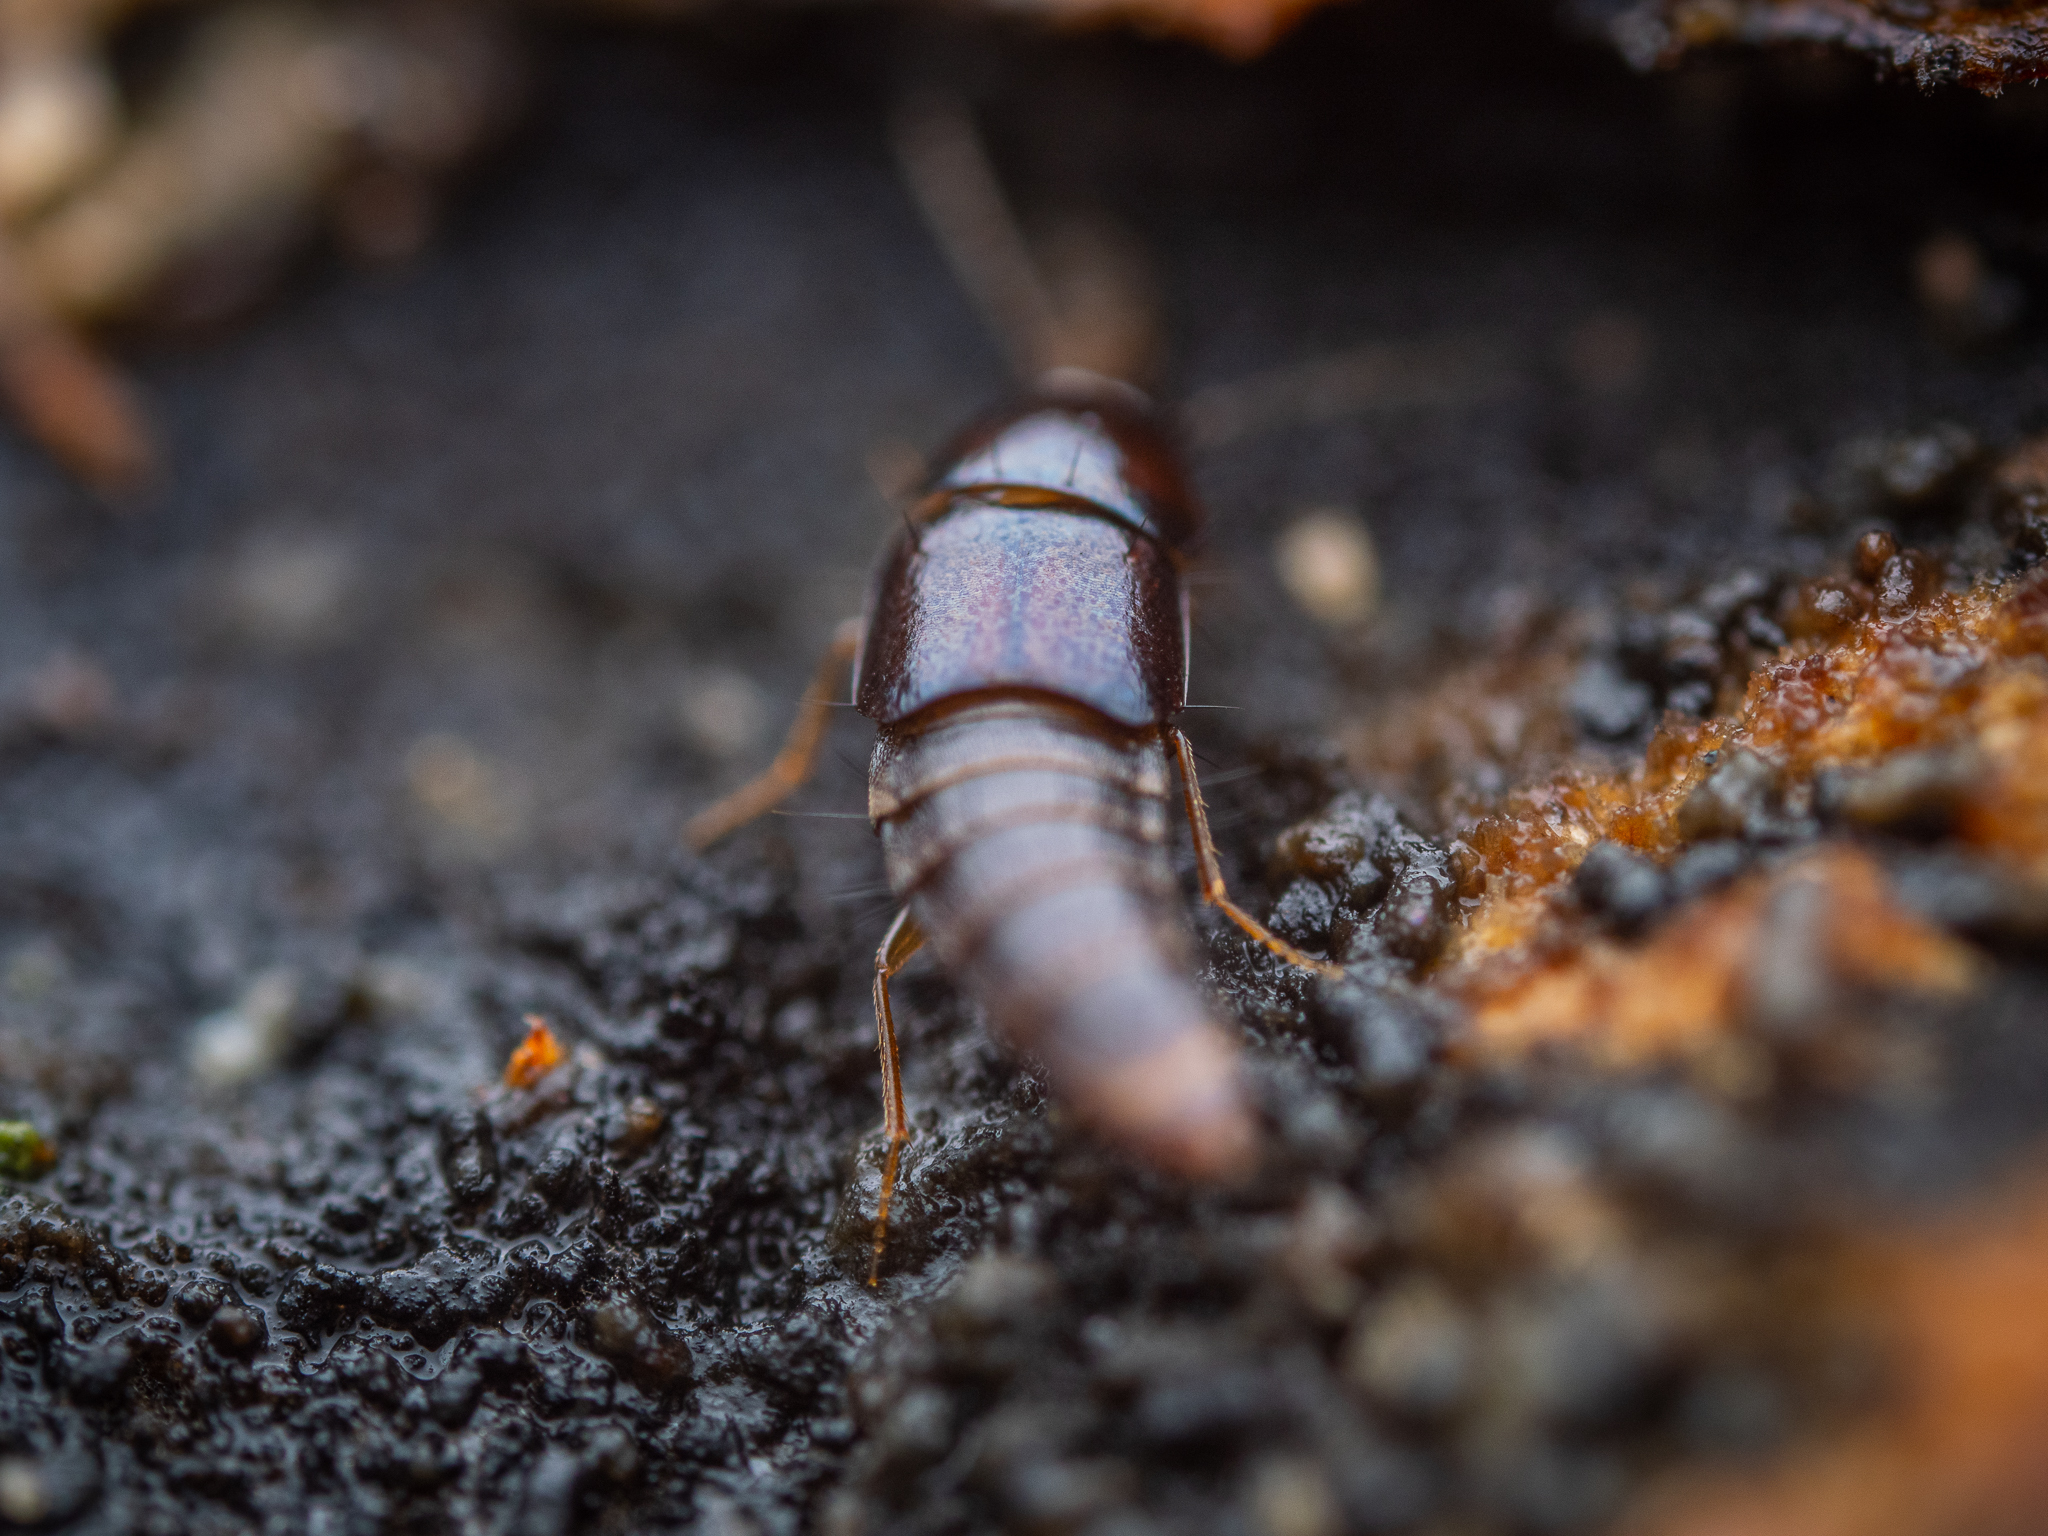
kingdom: Animalia
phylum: Arthropoda
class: Insecta
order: Coleoptera
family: Staphylinidae
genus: Habrocerus
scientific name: Habrocerus capillaricornis
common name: Staph beetle
